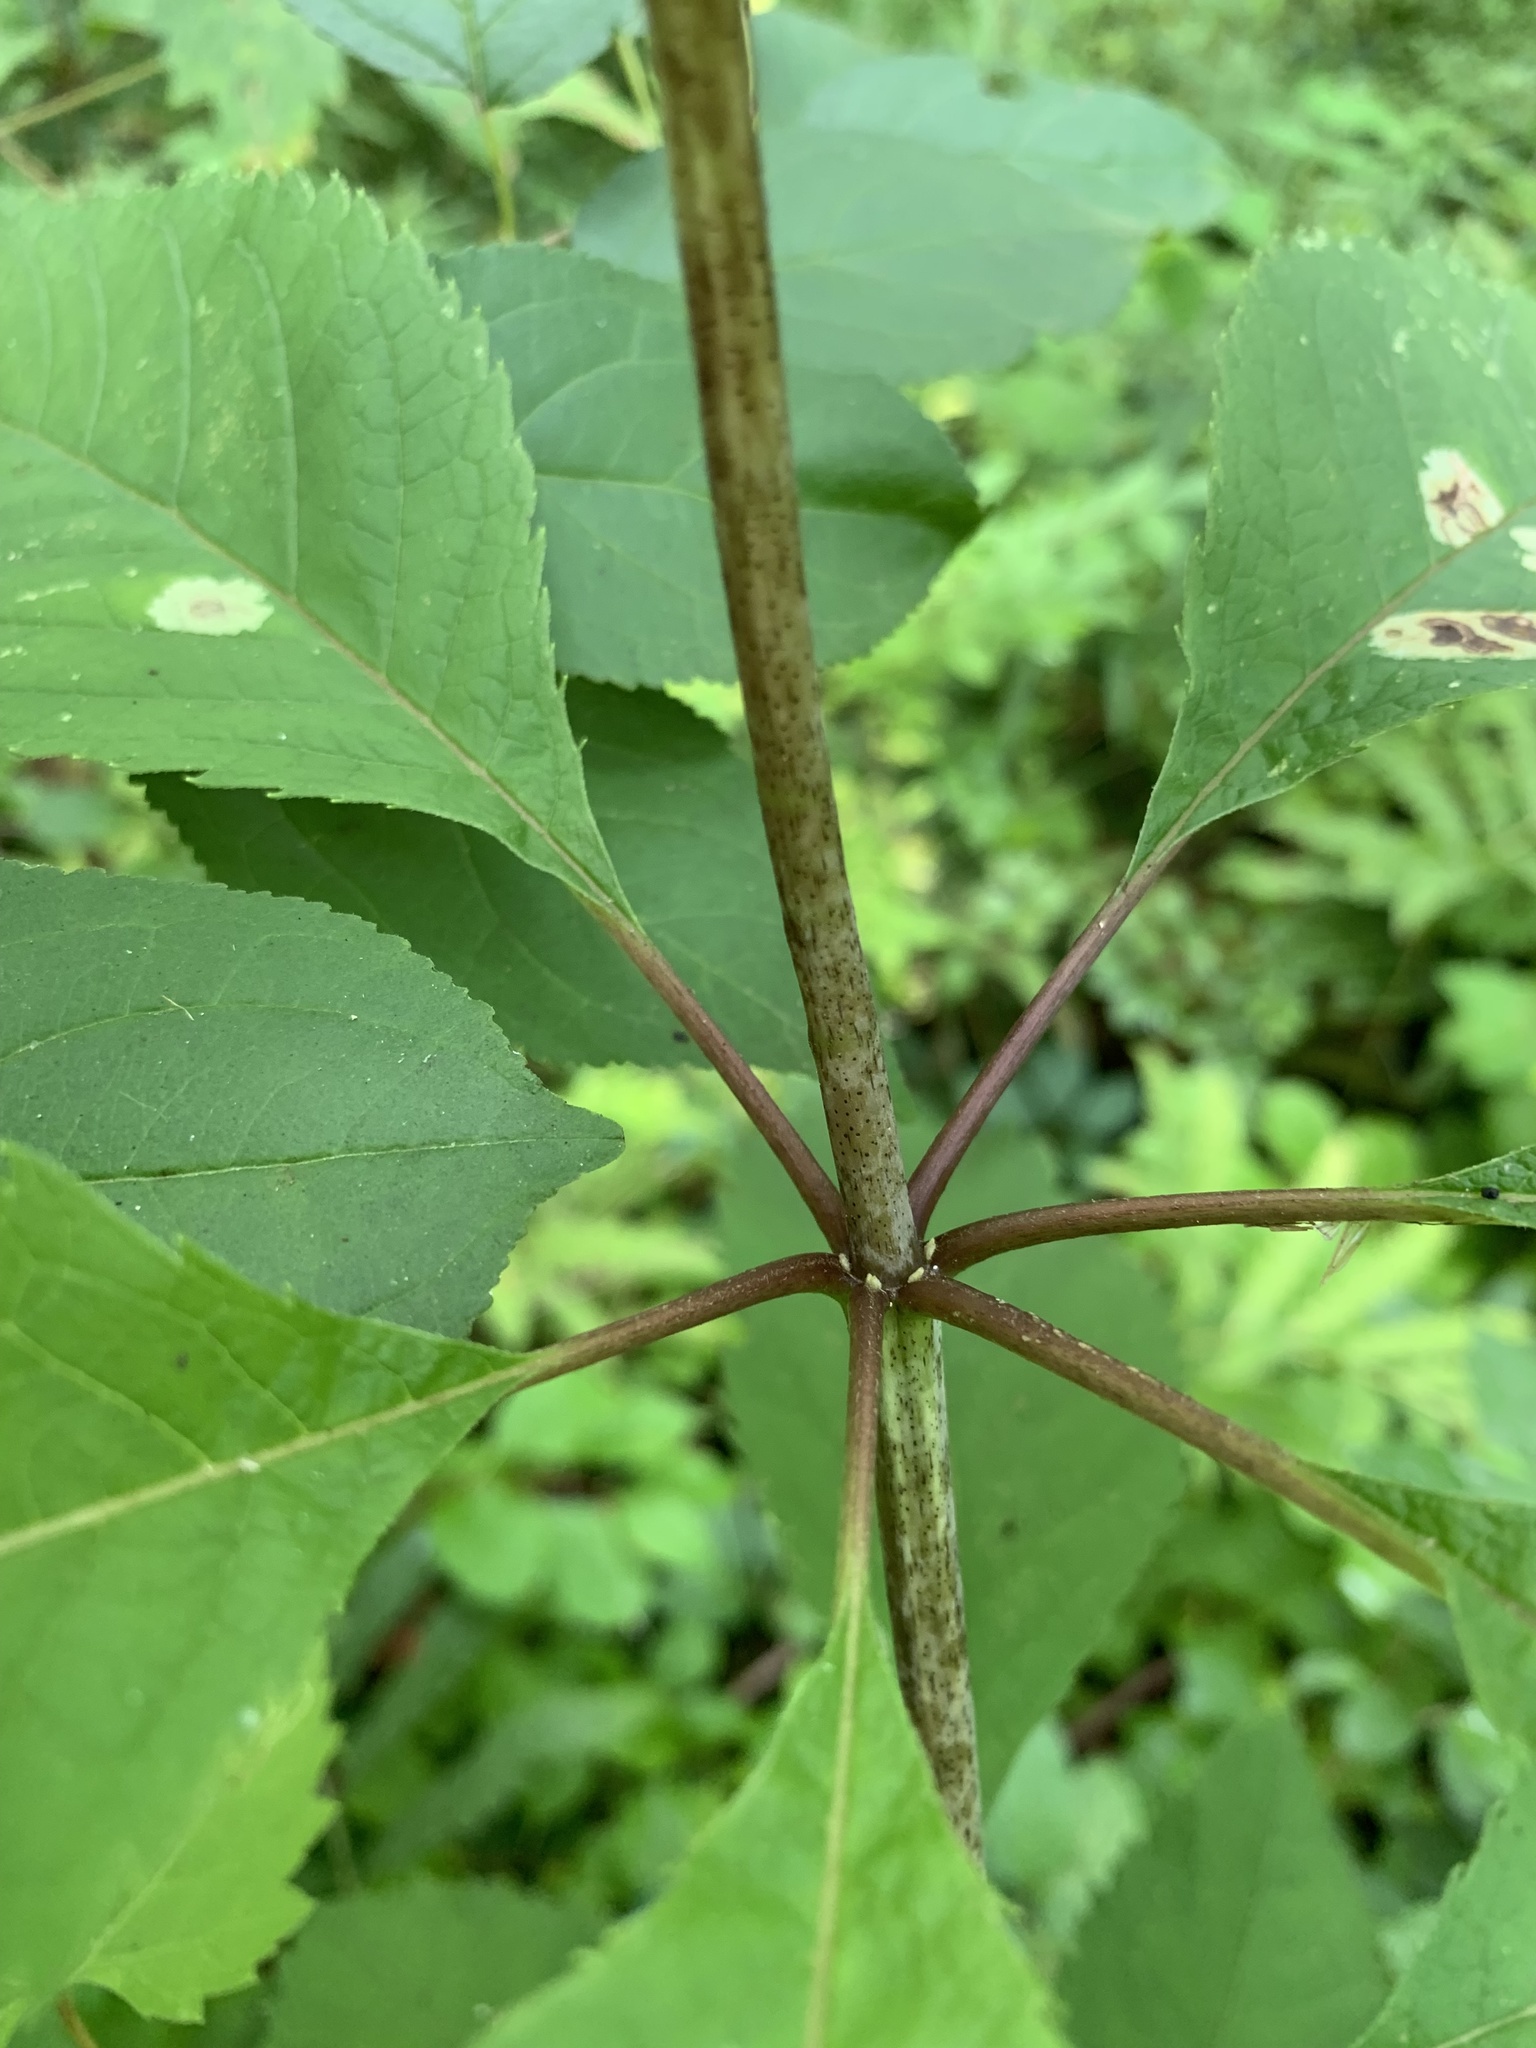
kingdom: Plantae
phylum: Tracheophyta
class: Magnoliopsida
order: Asterales
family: Asteraceae
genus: Eutrochium
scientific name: Eutrochium maculatum
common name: Spotted joe pye weed
